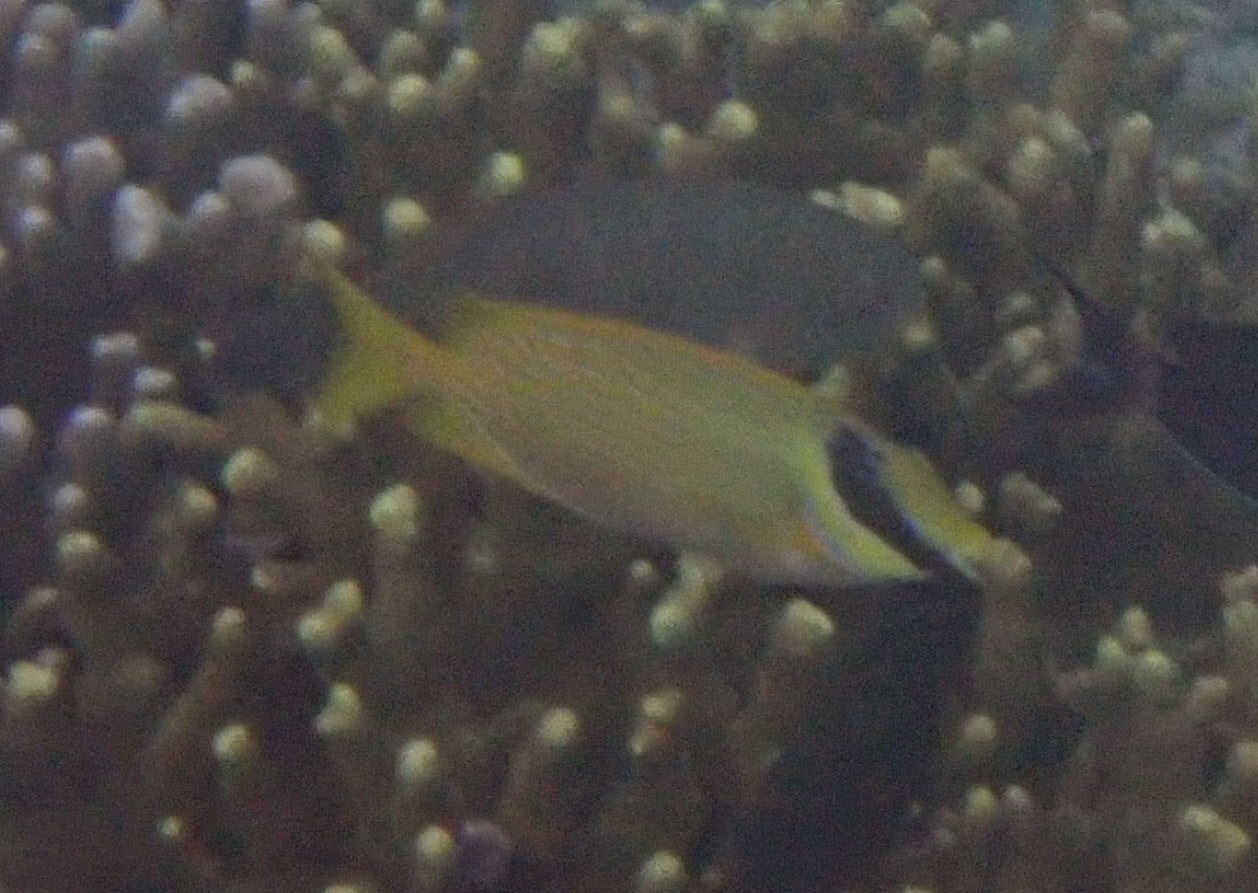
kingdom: Animalia
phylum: Chordata
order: Perciformes
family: Siganidae
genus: Siganus
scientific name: Siganus puellus
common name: Masked rabbitfish
